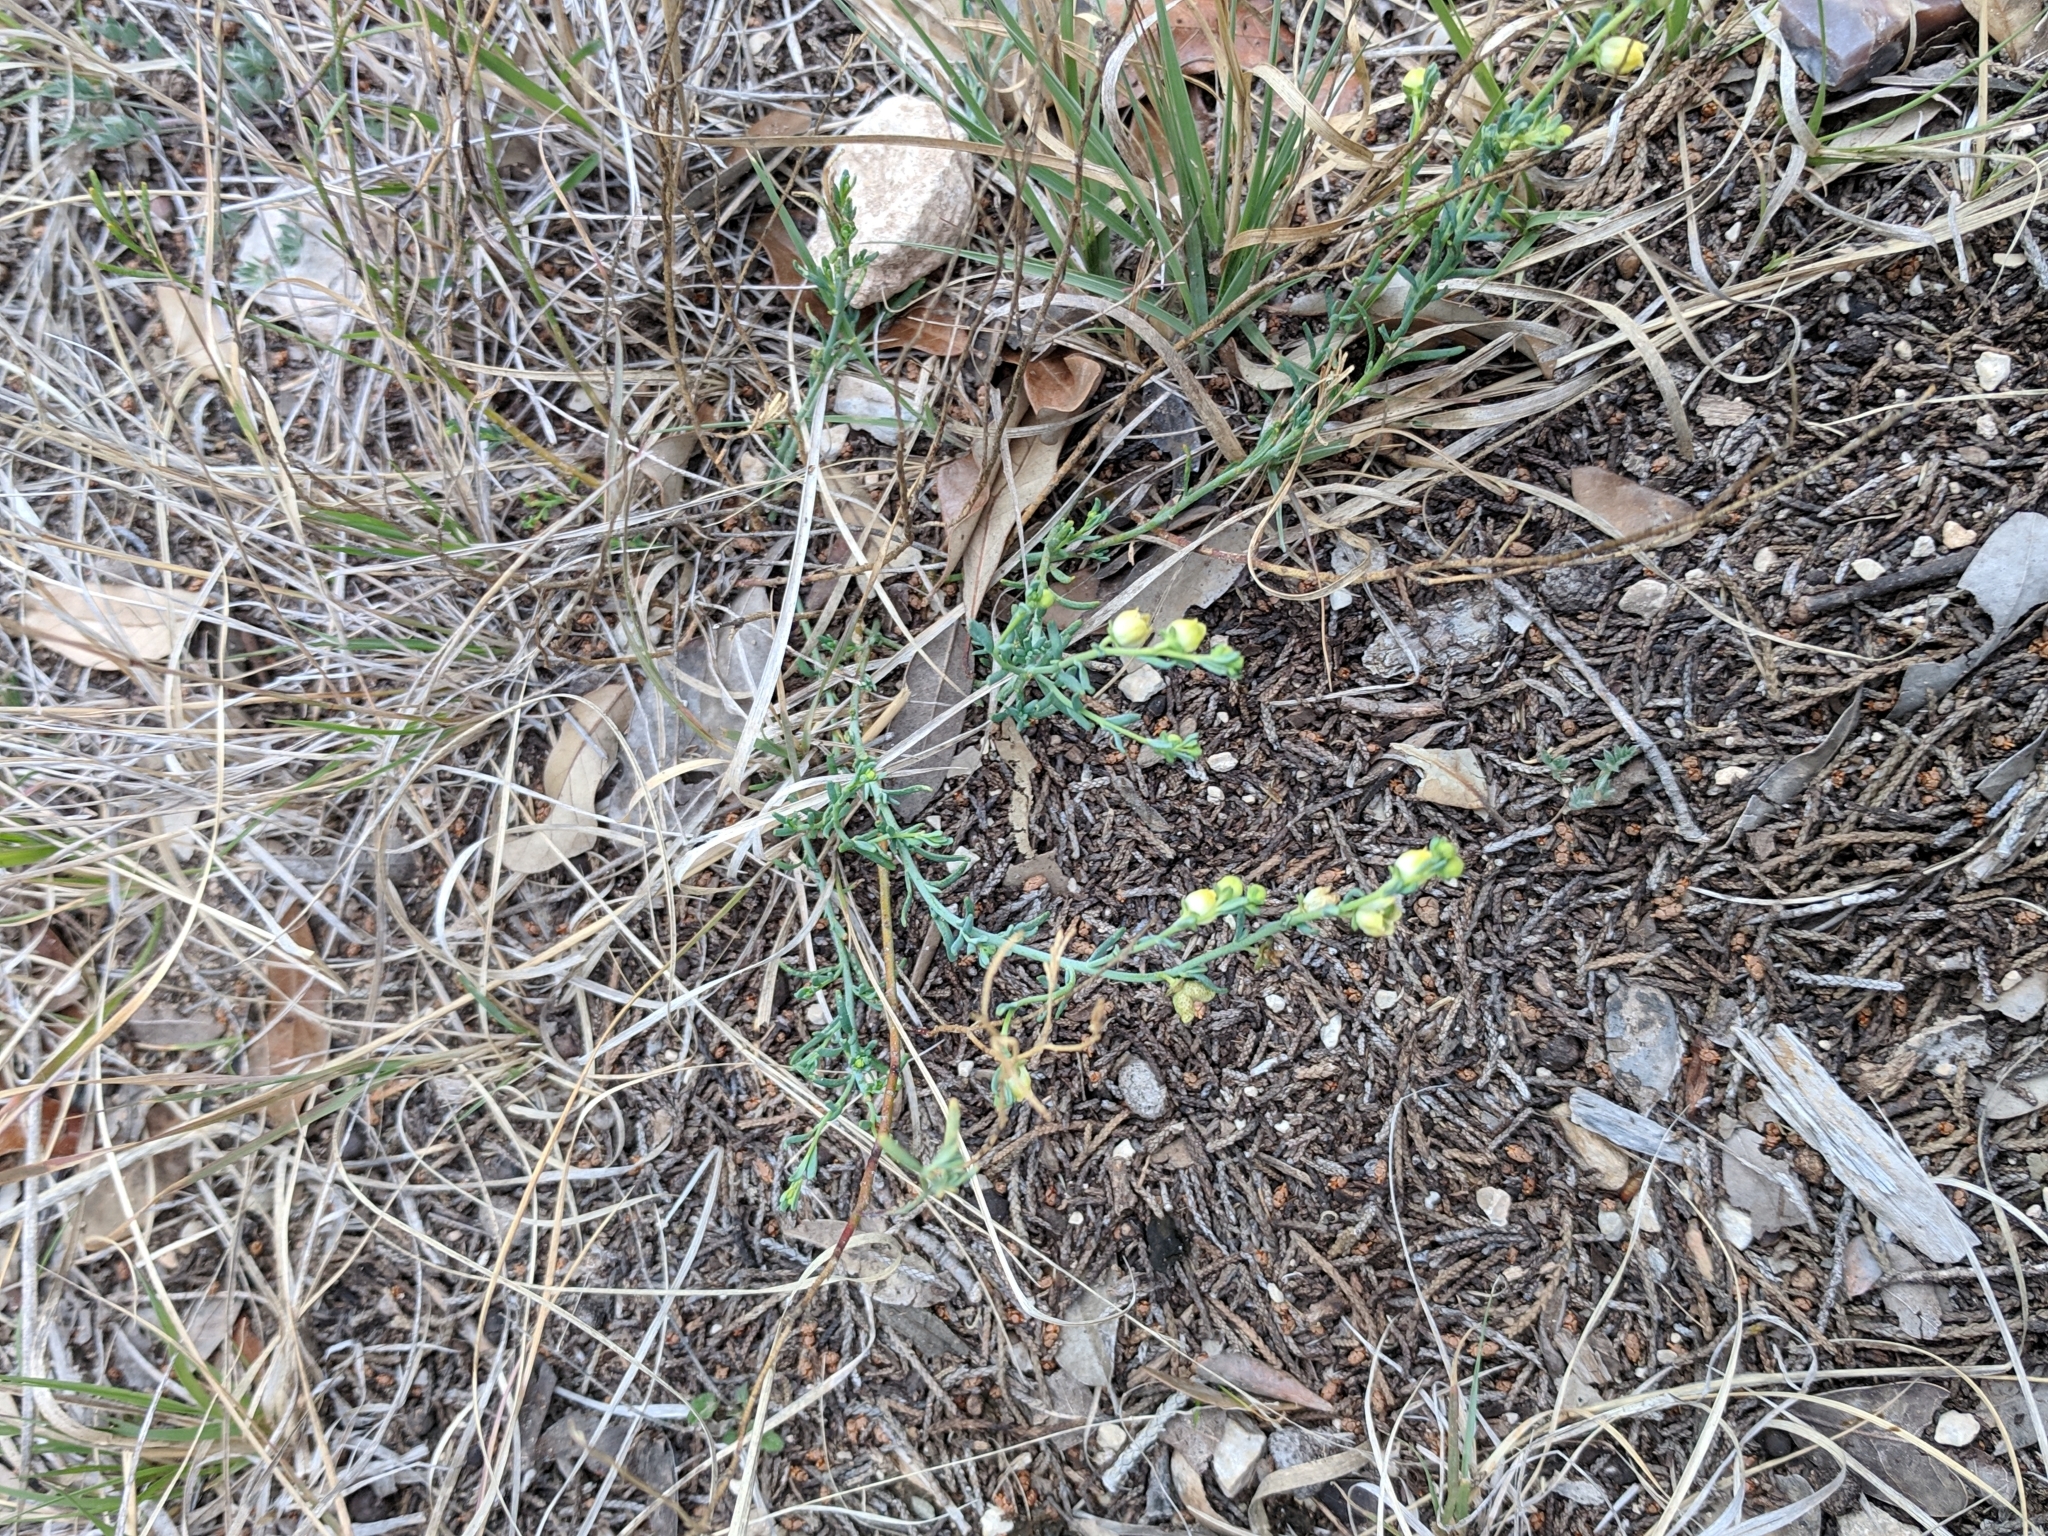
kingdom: Plantae
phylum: Tracheophyta
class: Magnoliopsida
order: Sapindales
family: Rutaceae
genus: Thamnosma
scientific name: Thamnosma texana
